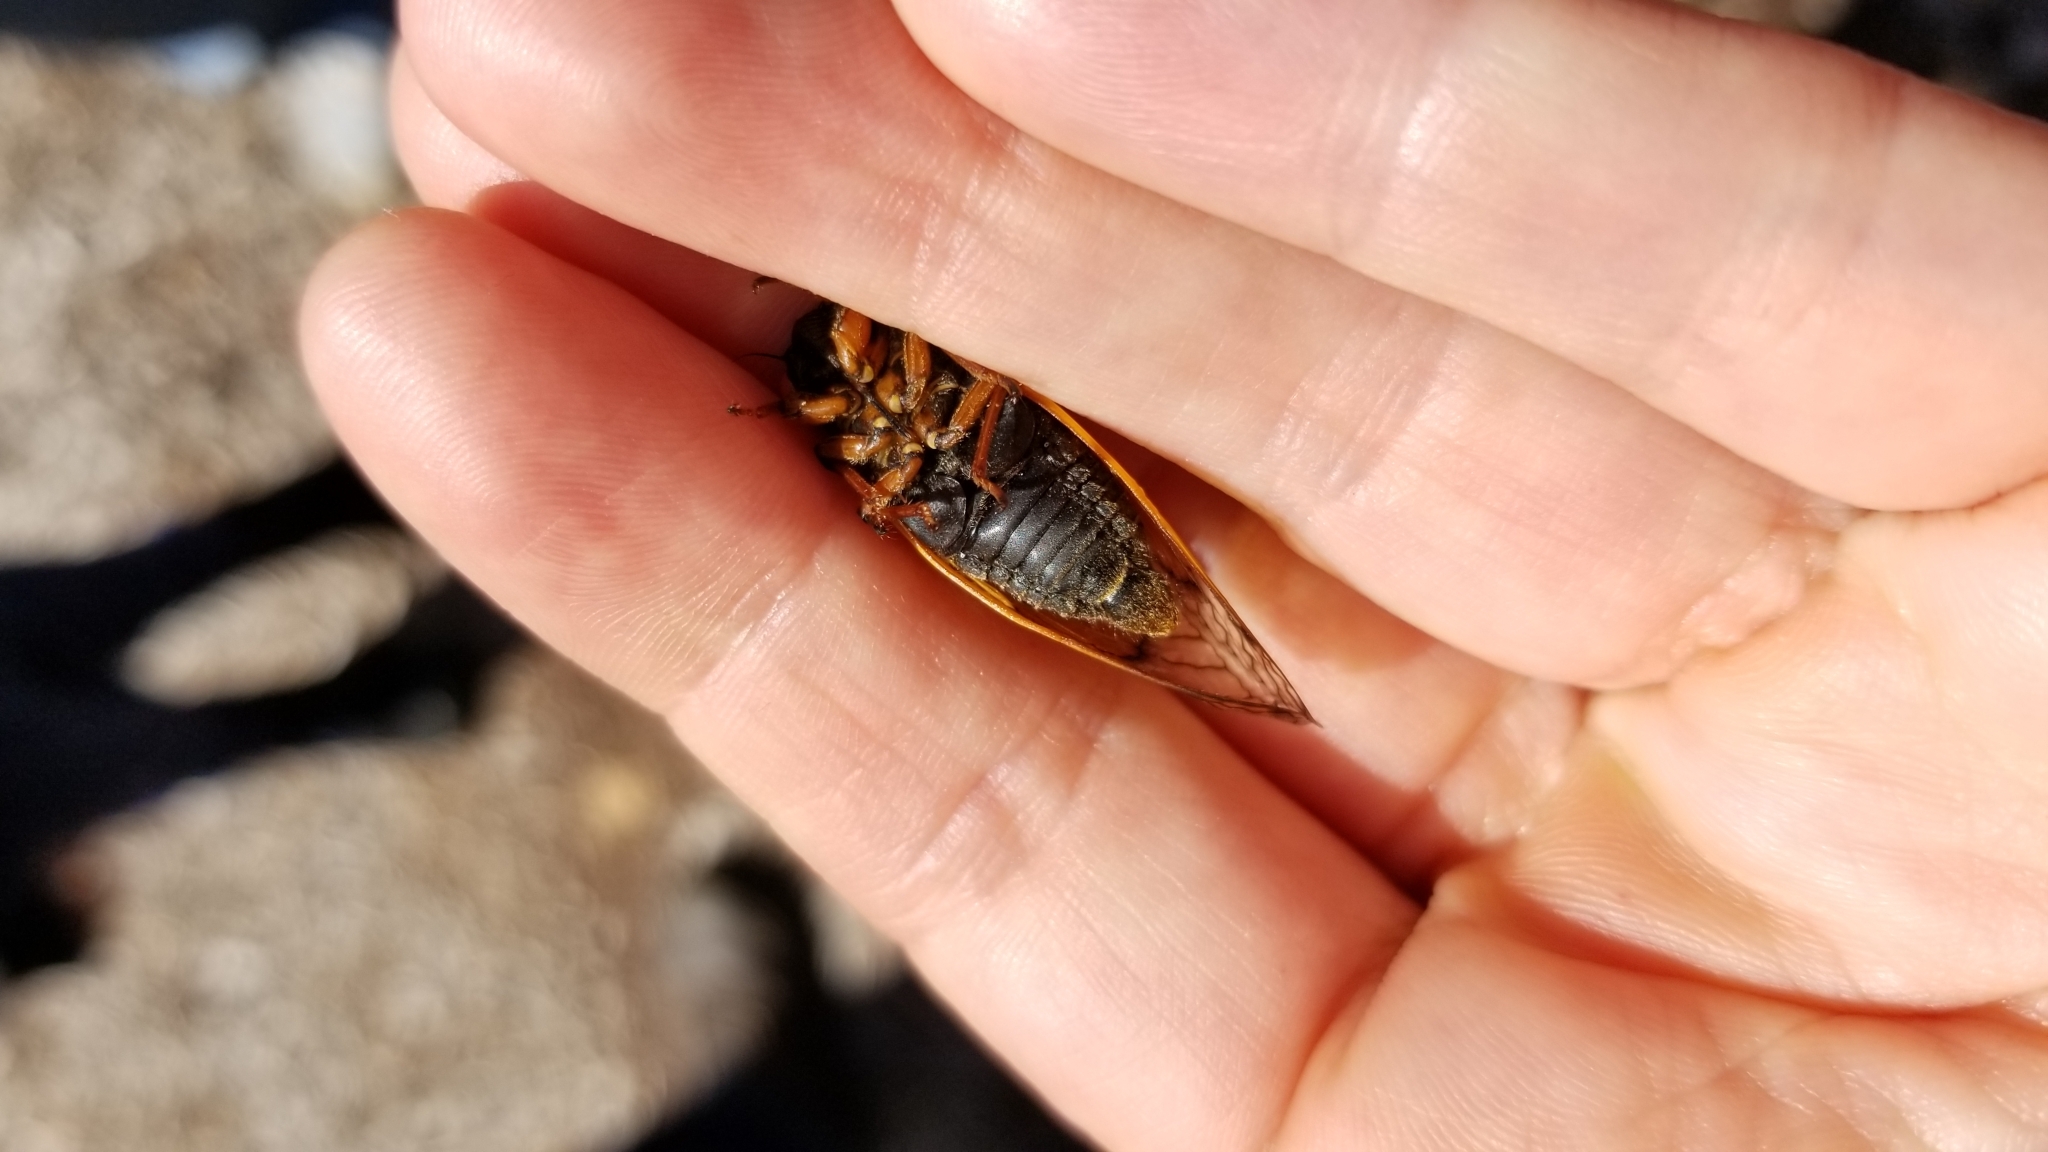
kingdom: Animalia
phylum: Arthropoda
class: Insecta
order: Hemiptera
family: Cicadidae
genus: Magicicada
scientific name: Magicicada cassini
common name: Cassin's 17-year cicada
